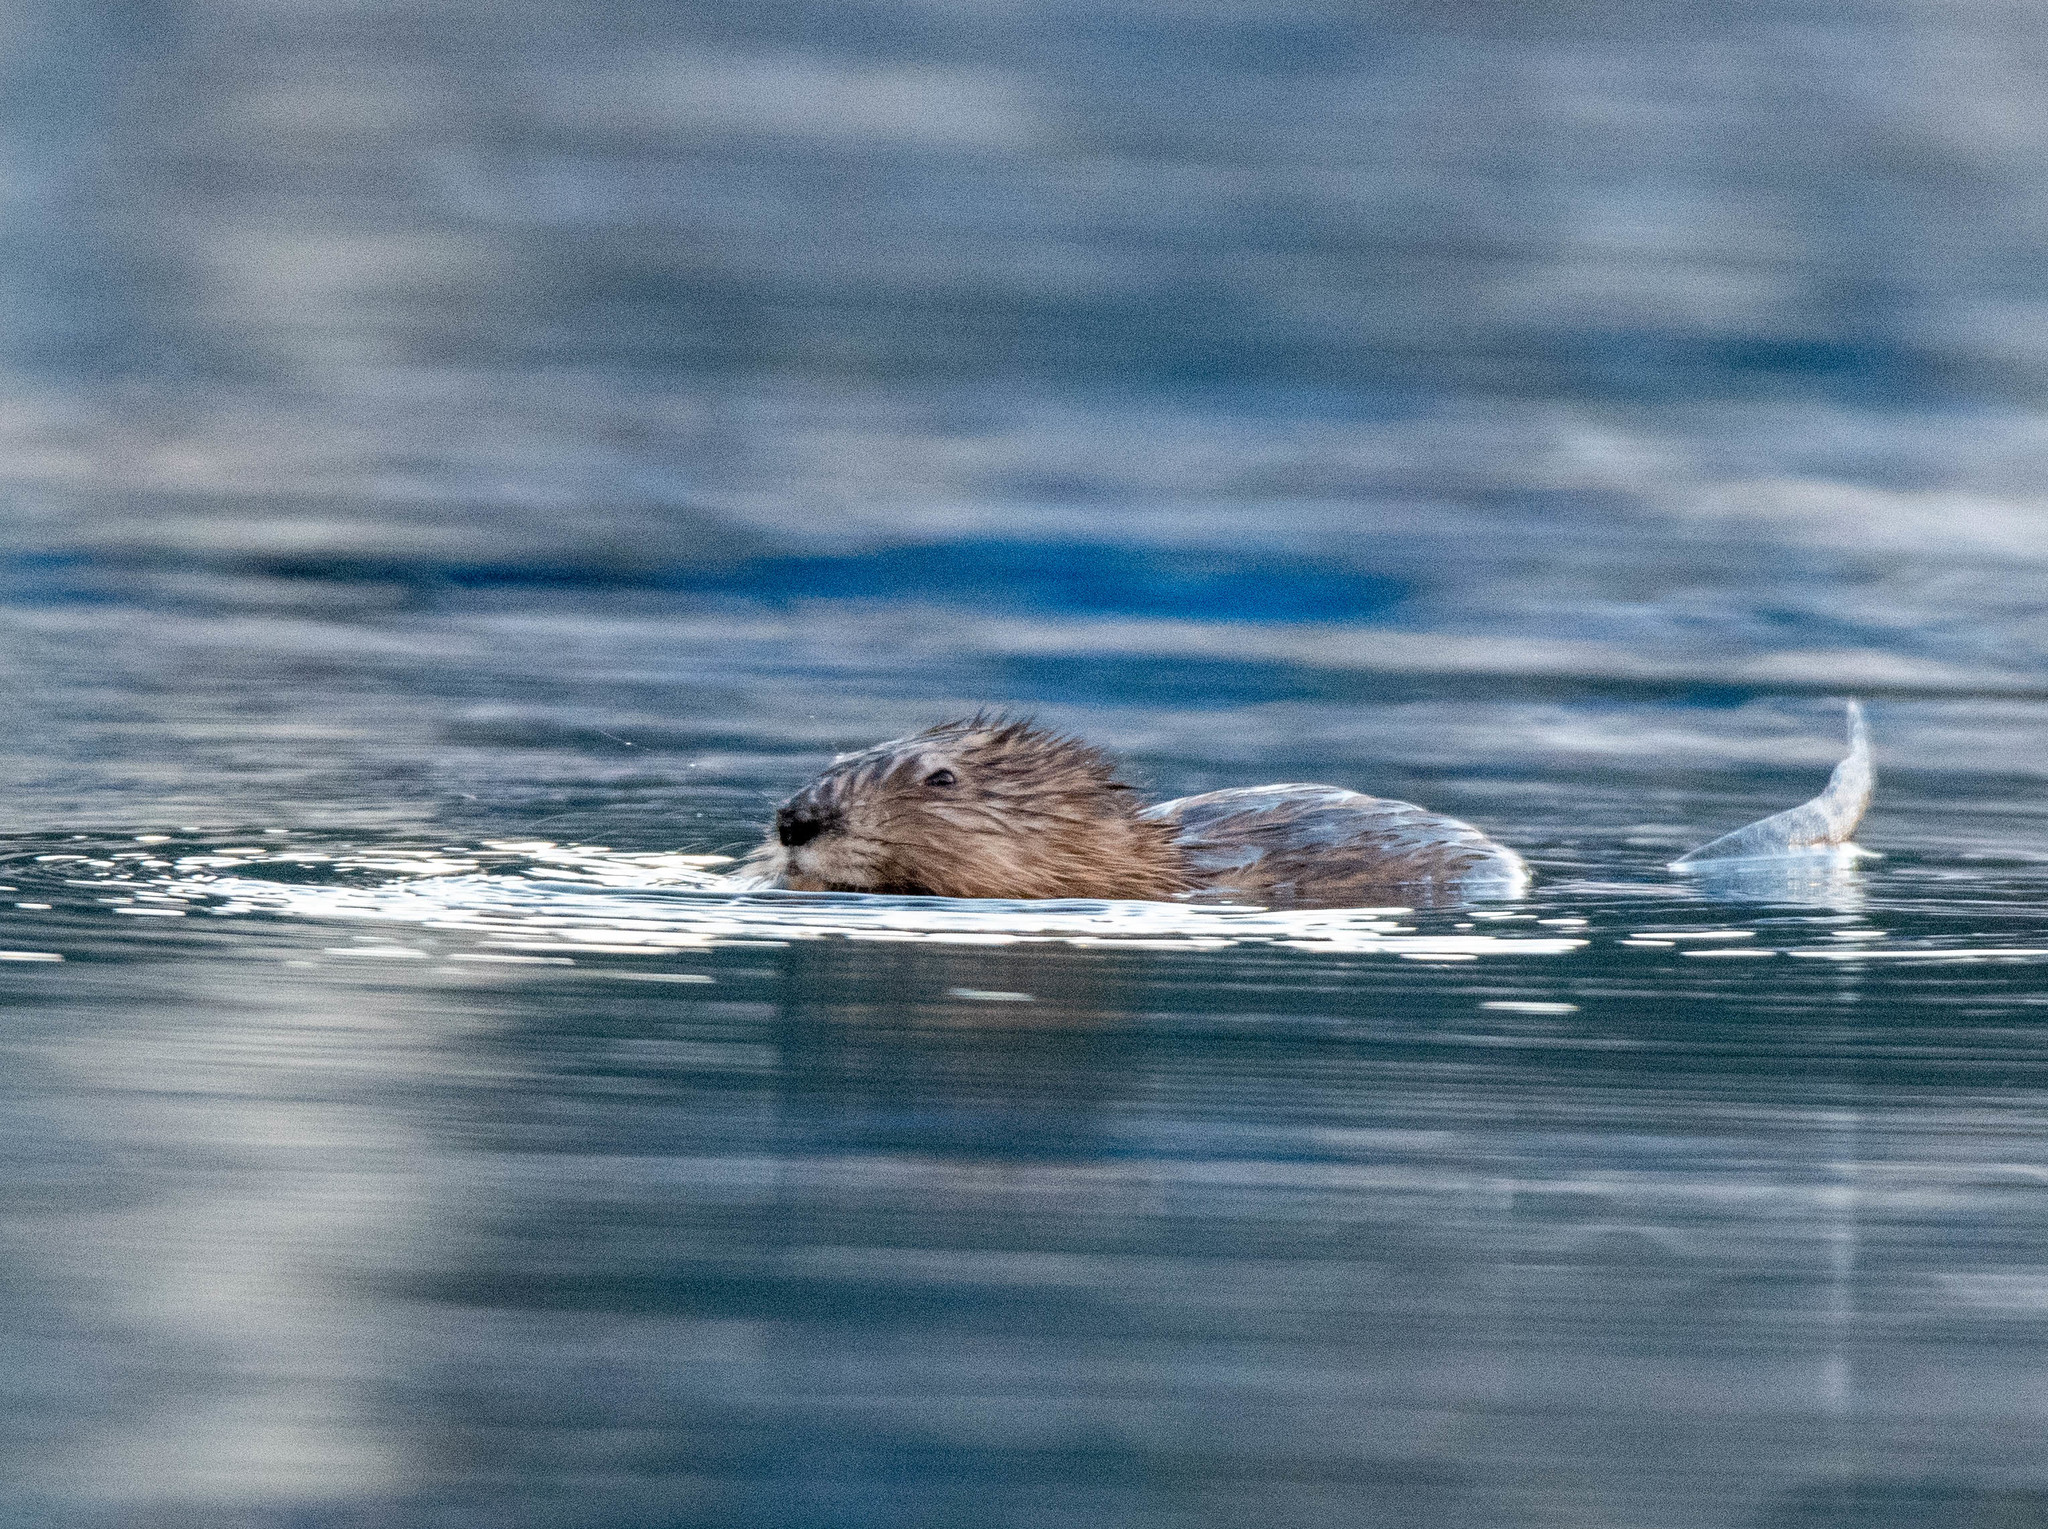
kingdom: Animalia
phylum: Chordata
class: Mammalia
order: Rodentia
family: Cricetidae
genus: Ondatra
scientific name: Ondatra zibethicus
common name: Muskrat
